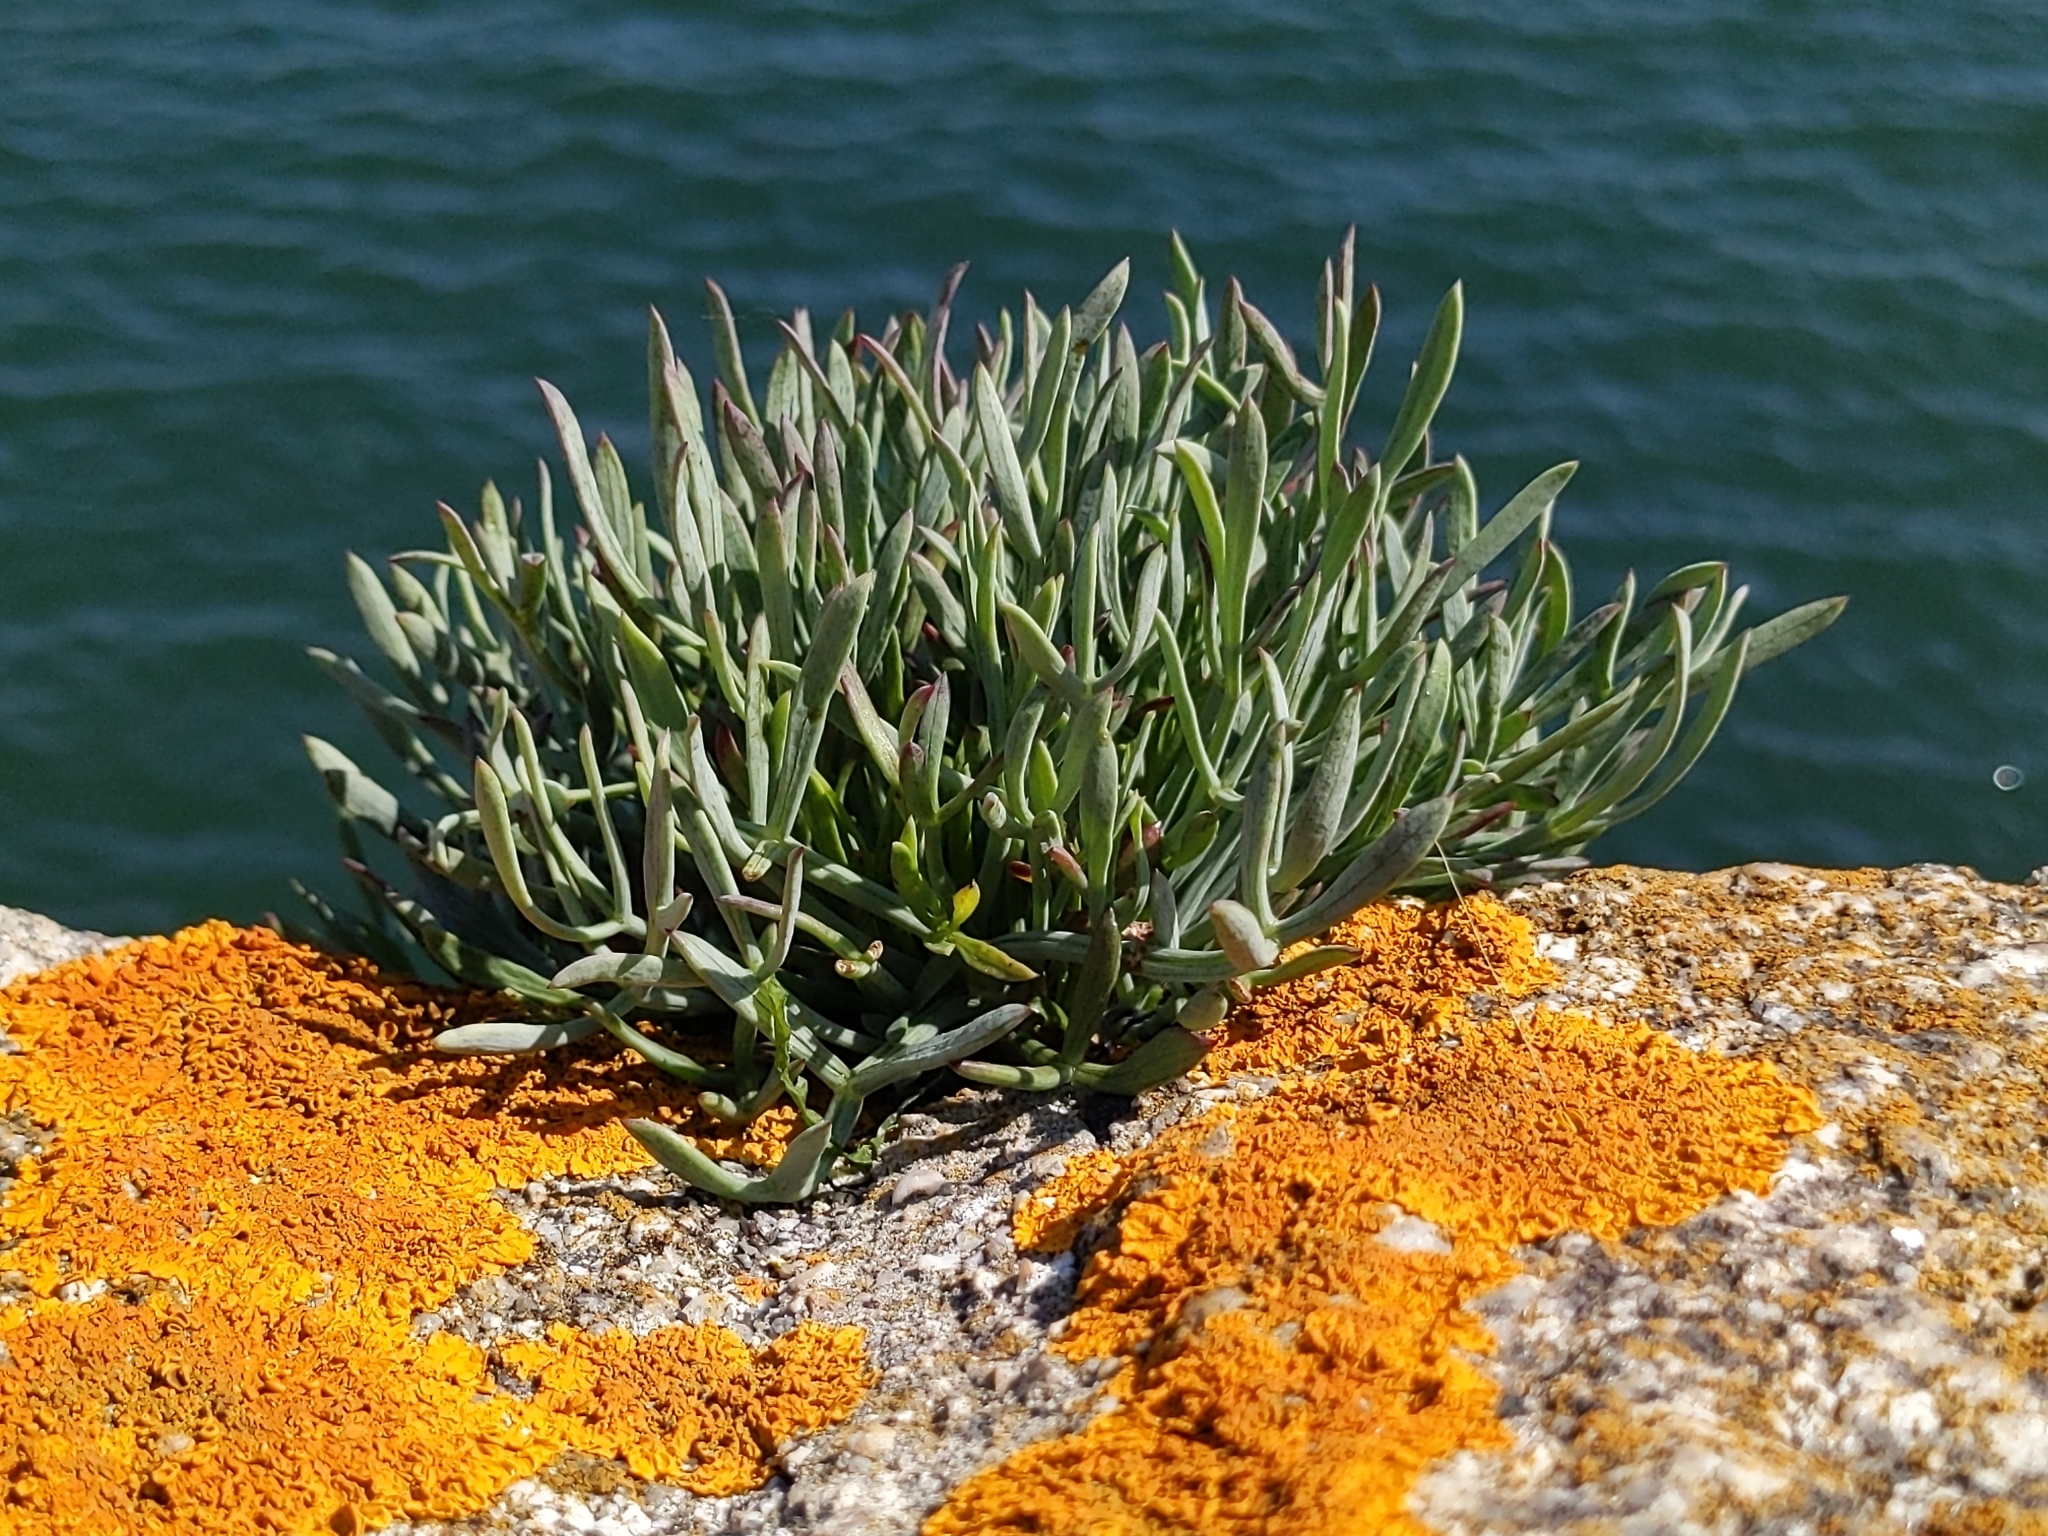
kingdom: Plantae
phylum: Tracheophyta
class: Magnoliopsida
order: Apiales
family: Apiaceae
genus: Crithmum
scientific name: Crithmum maritimum
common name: Rock samphire
